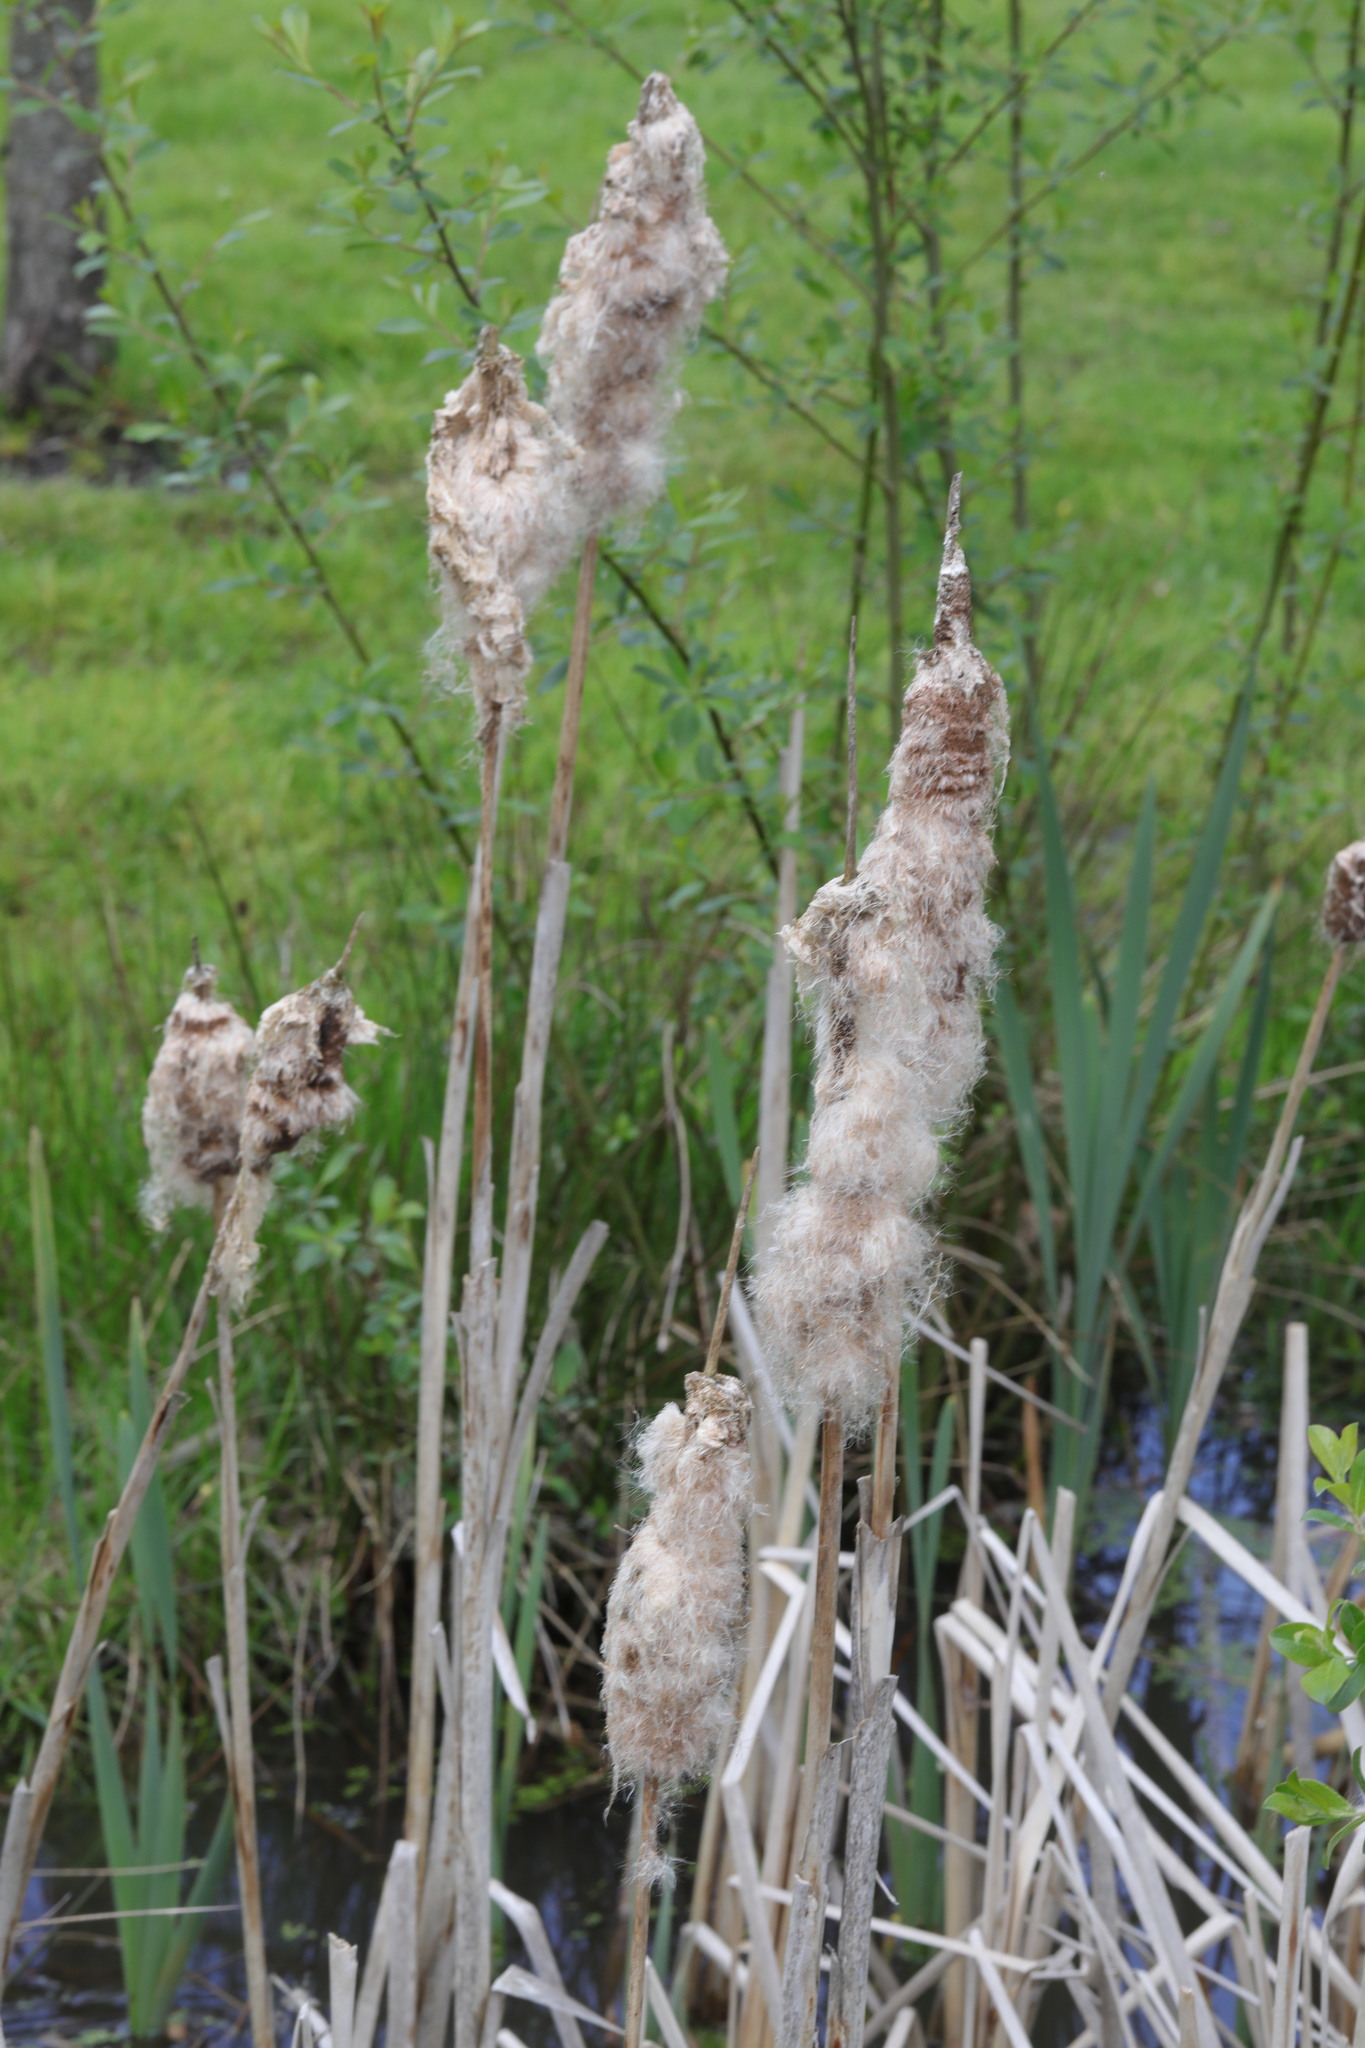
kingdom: Plantae
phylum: Tracheophyta
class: Liliopsida
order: Poales
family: Typhaceae
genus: Typha
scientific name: Typha latifolia
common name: Broadleaf cattail
